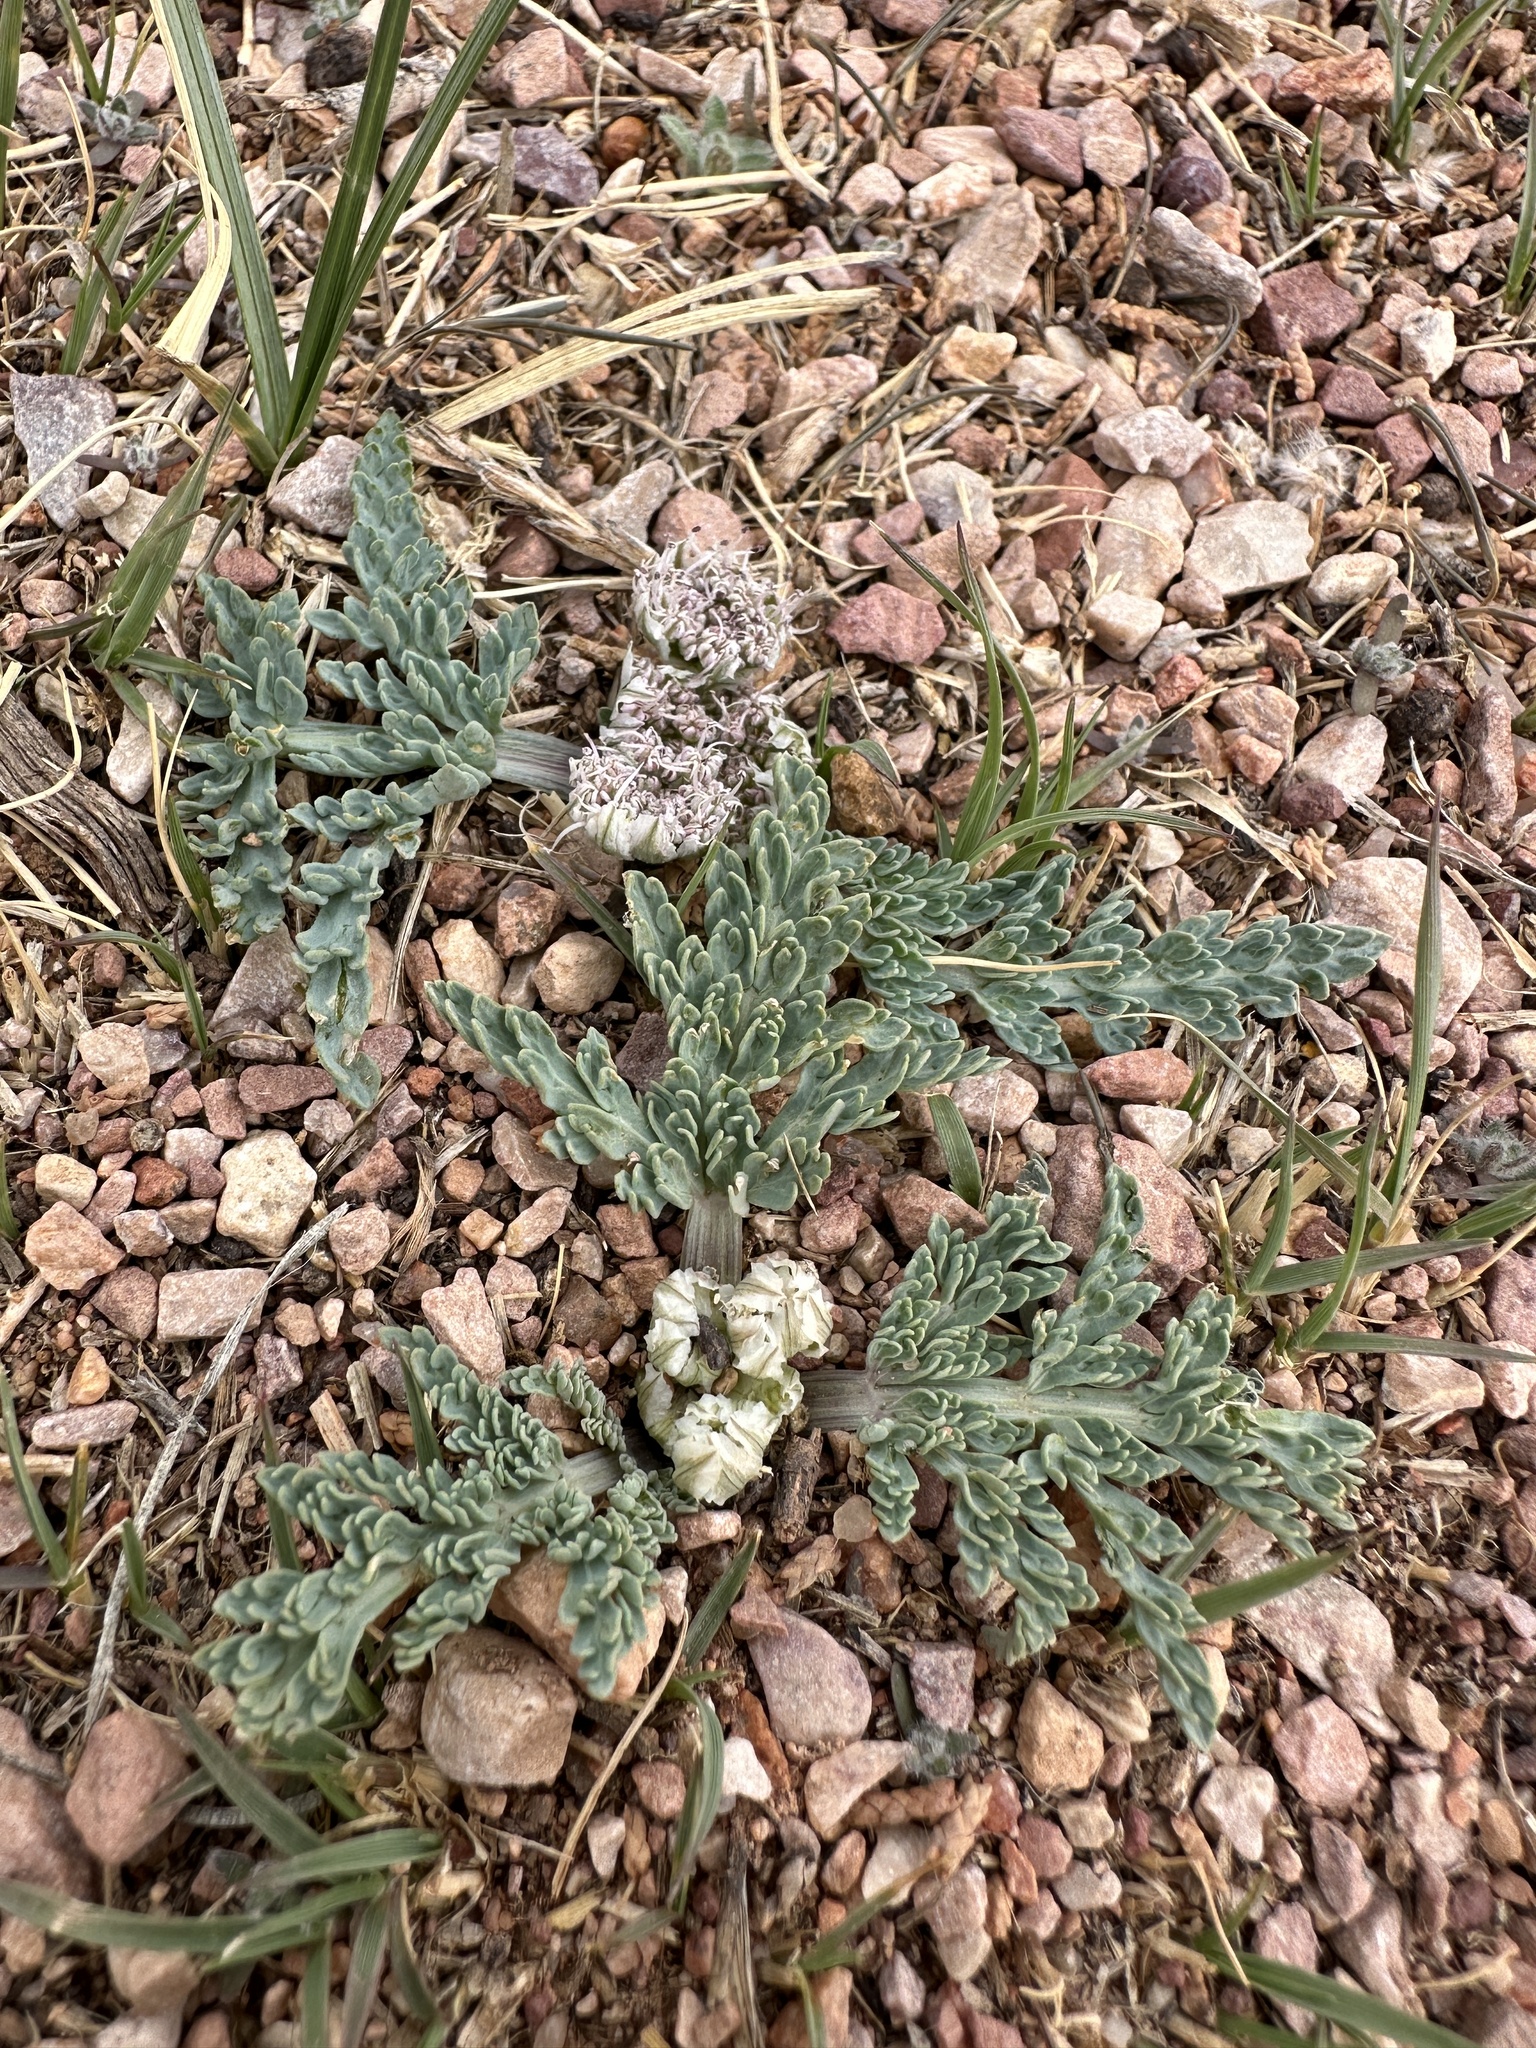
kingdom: Plantae
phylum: Tracheophyta
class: Magnoliopsida
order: Apiales
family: Apiaceae
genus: Vesper
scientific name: Vesper montanus
